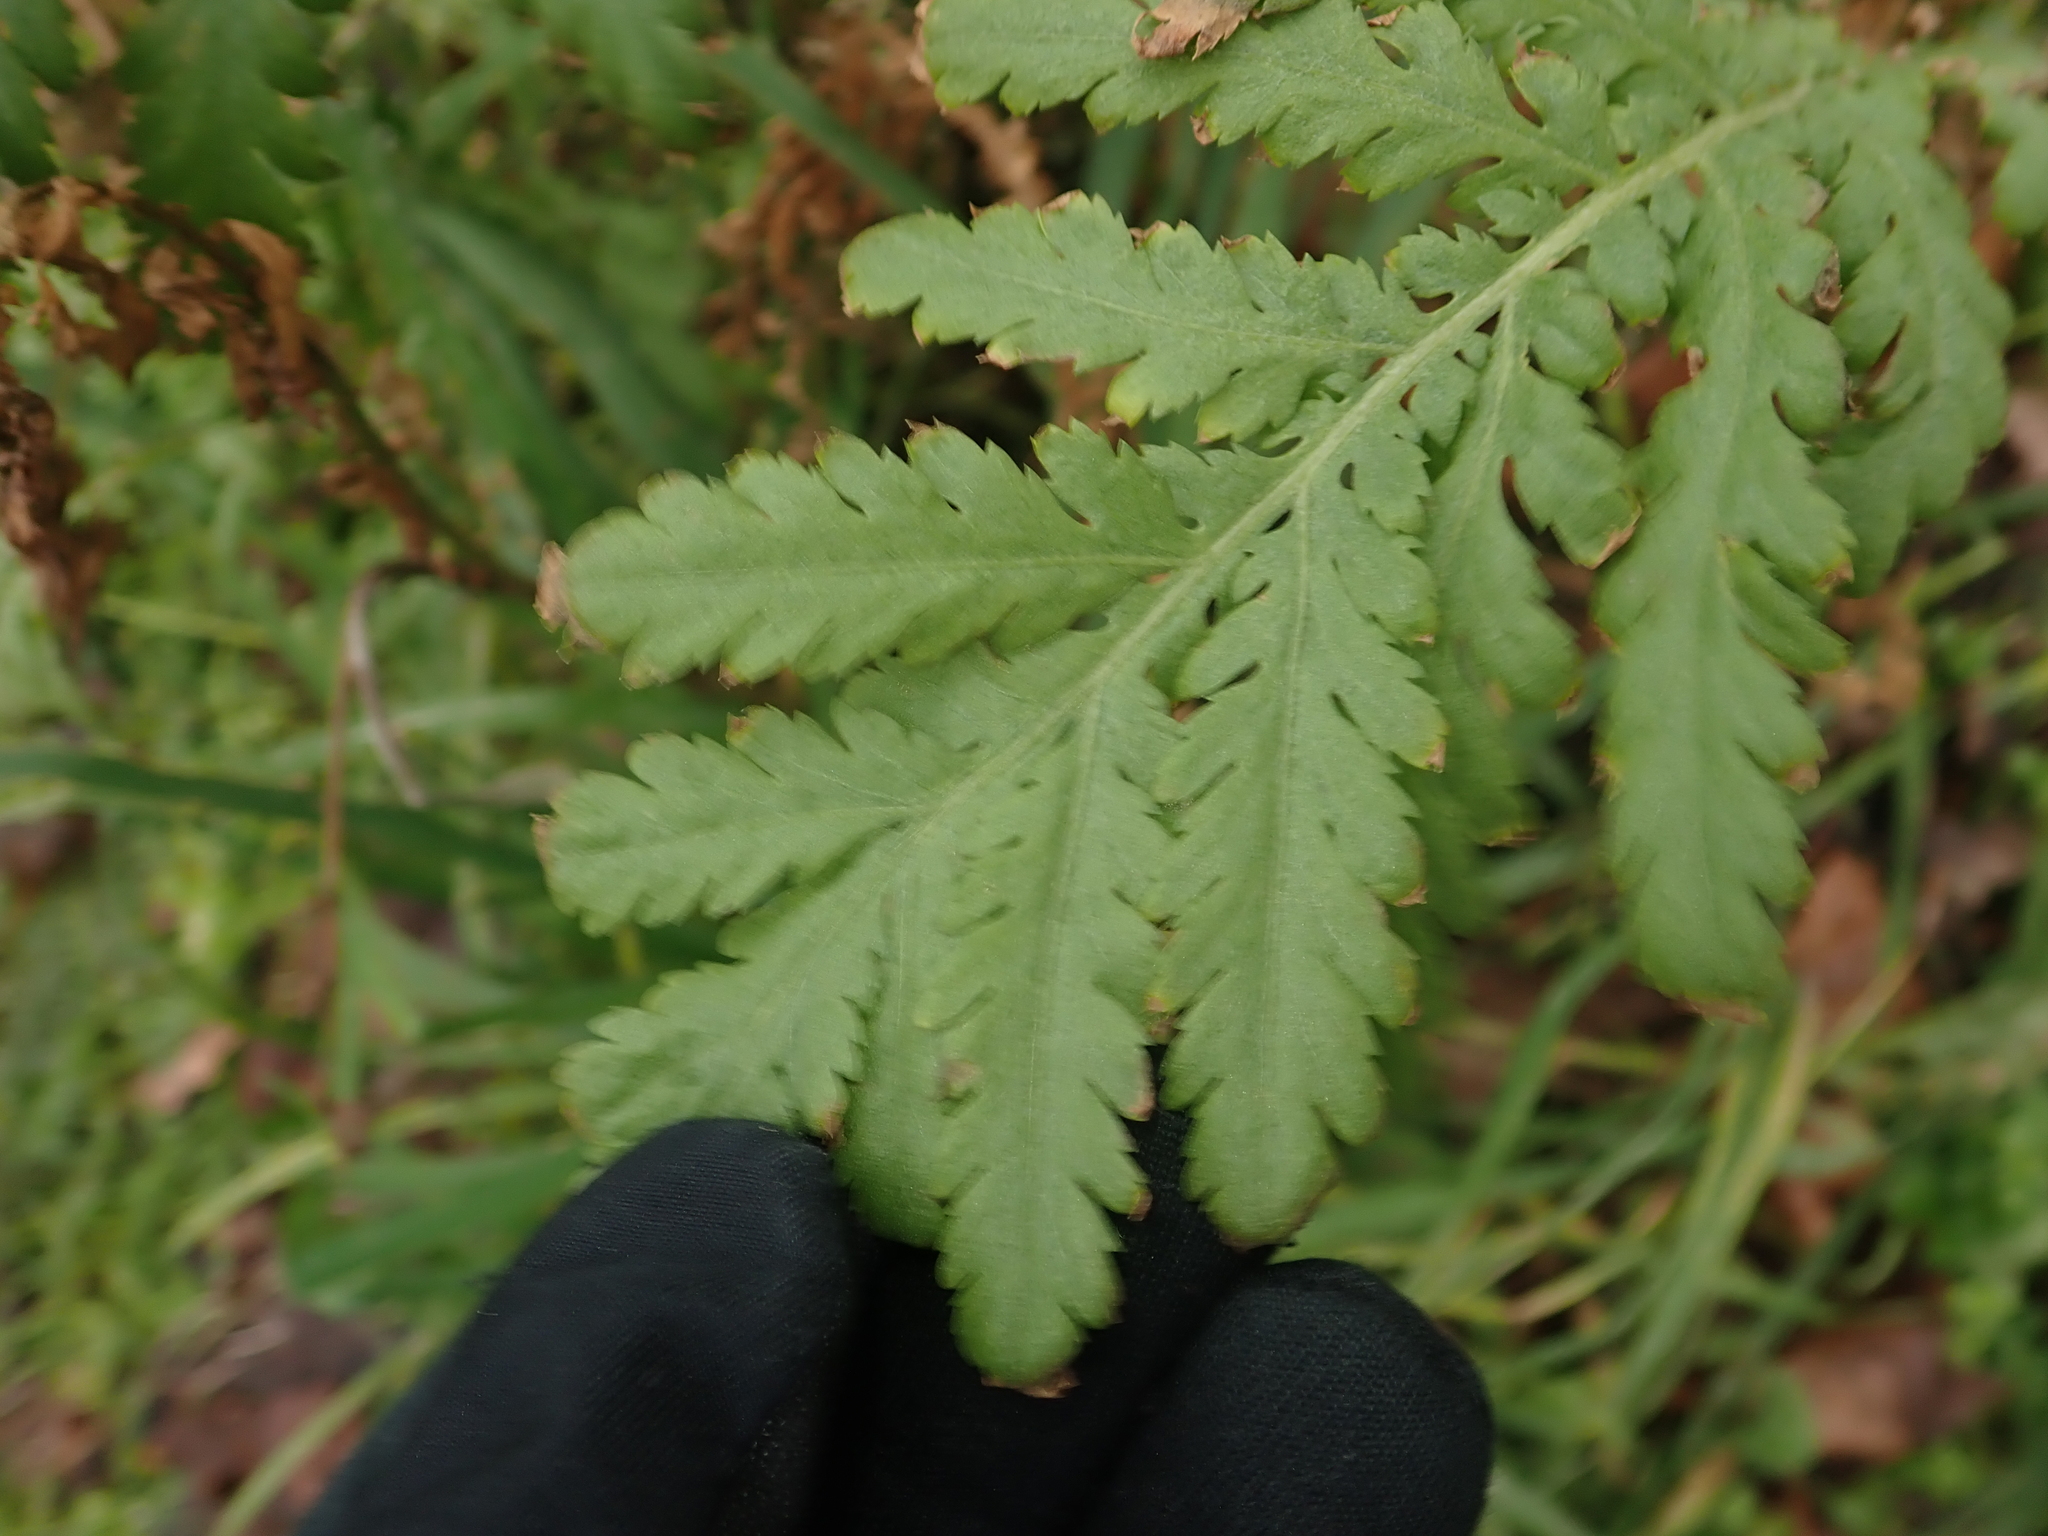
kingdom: Plantae
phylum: Tracheophyta
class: Magnoliopsida
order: Asterales
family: Asteraceae
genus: Tanacetum
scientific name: Tanacetum vulgare
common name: Common tansy
